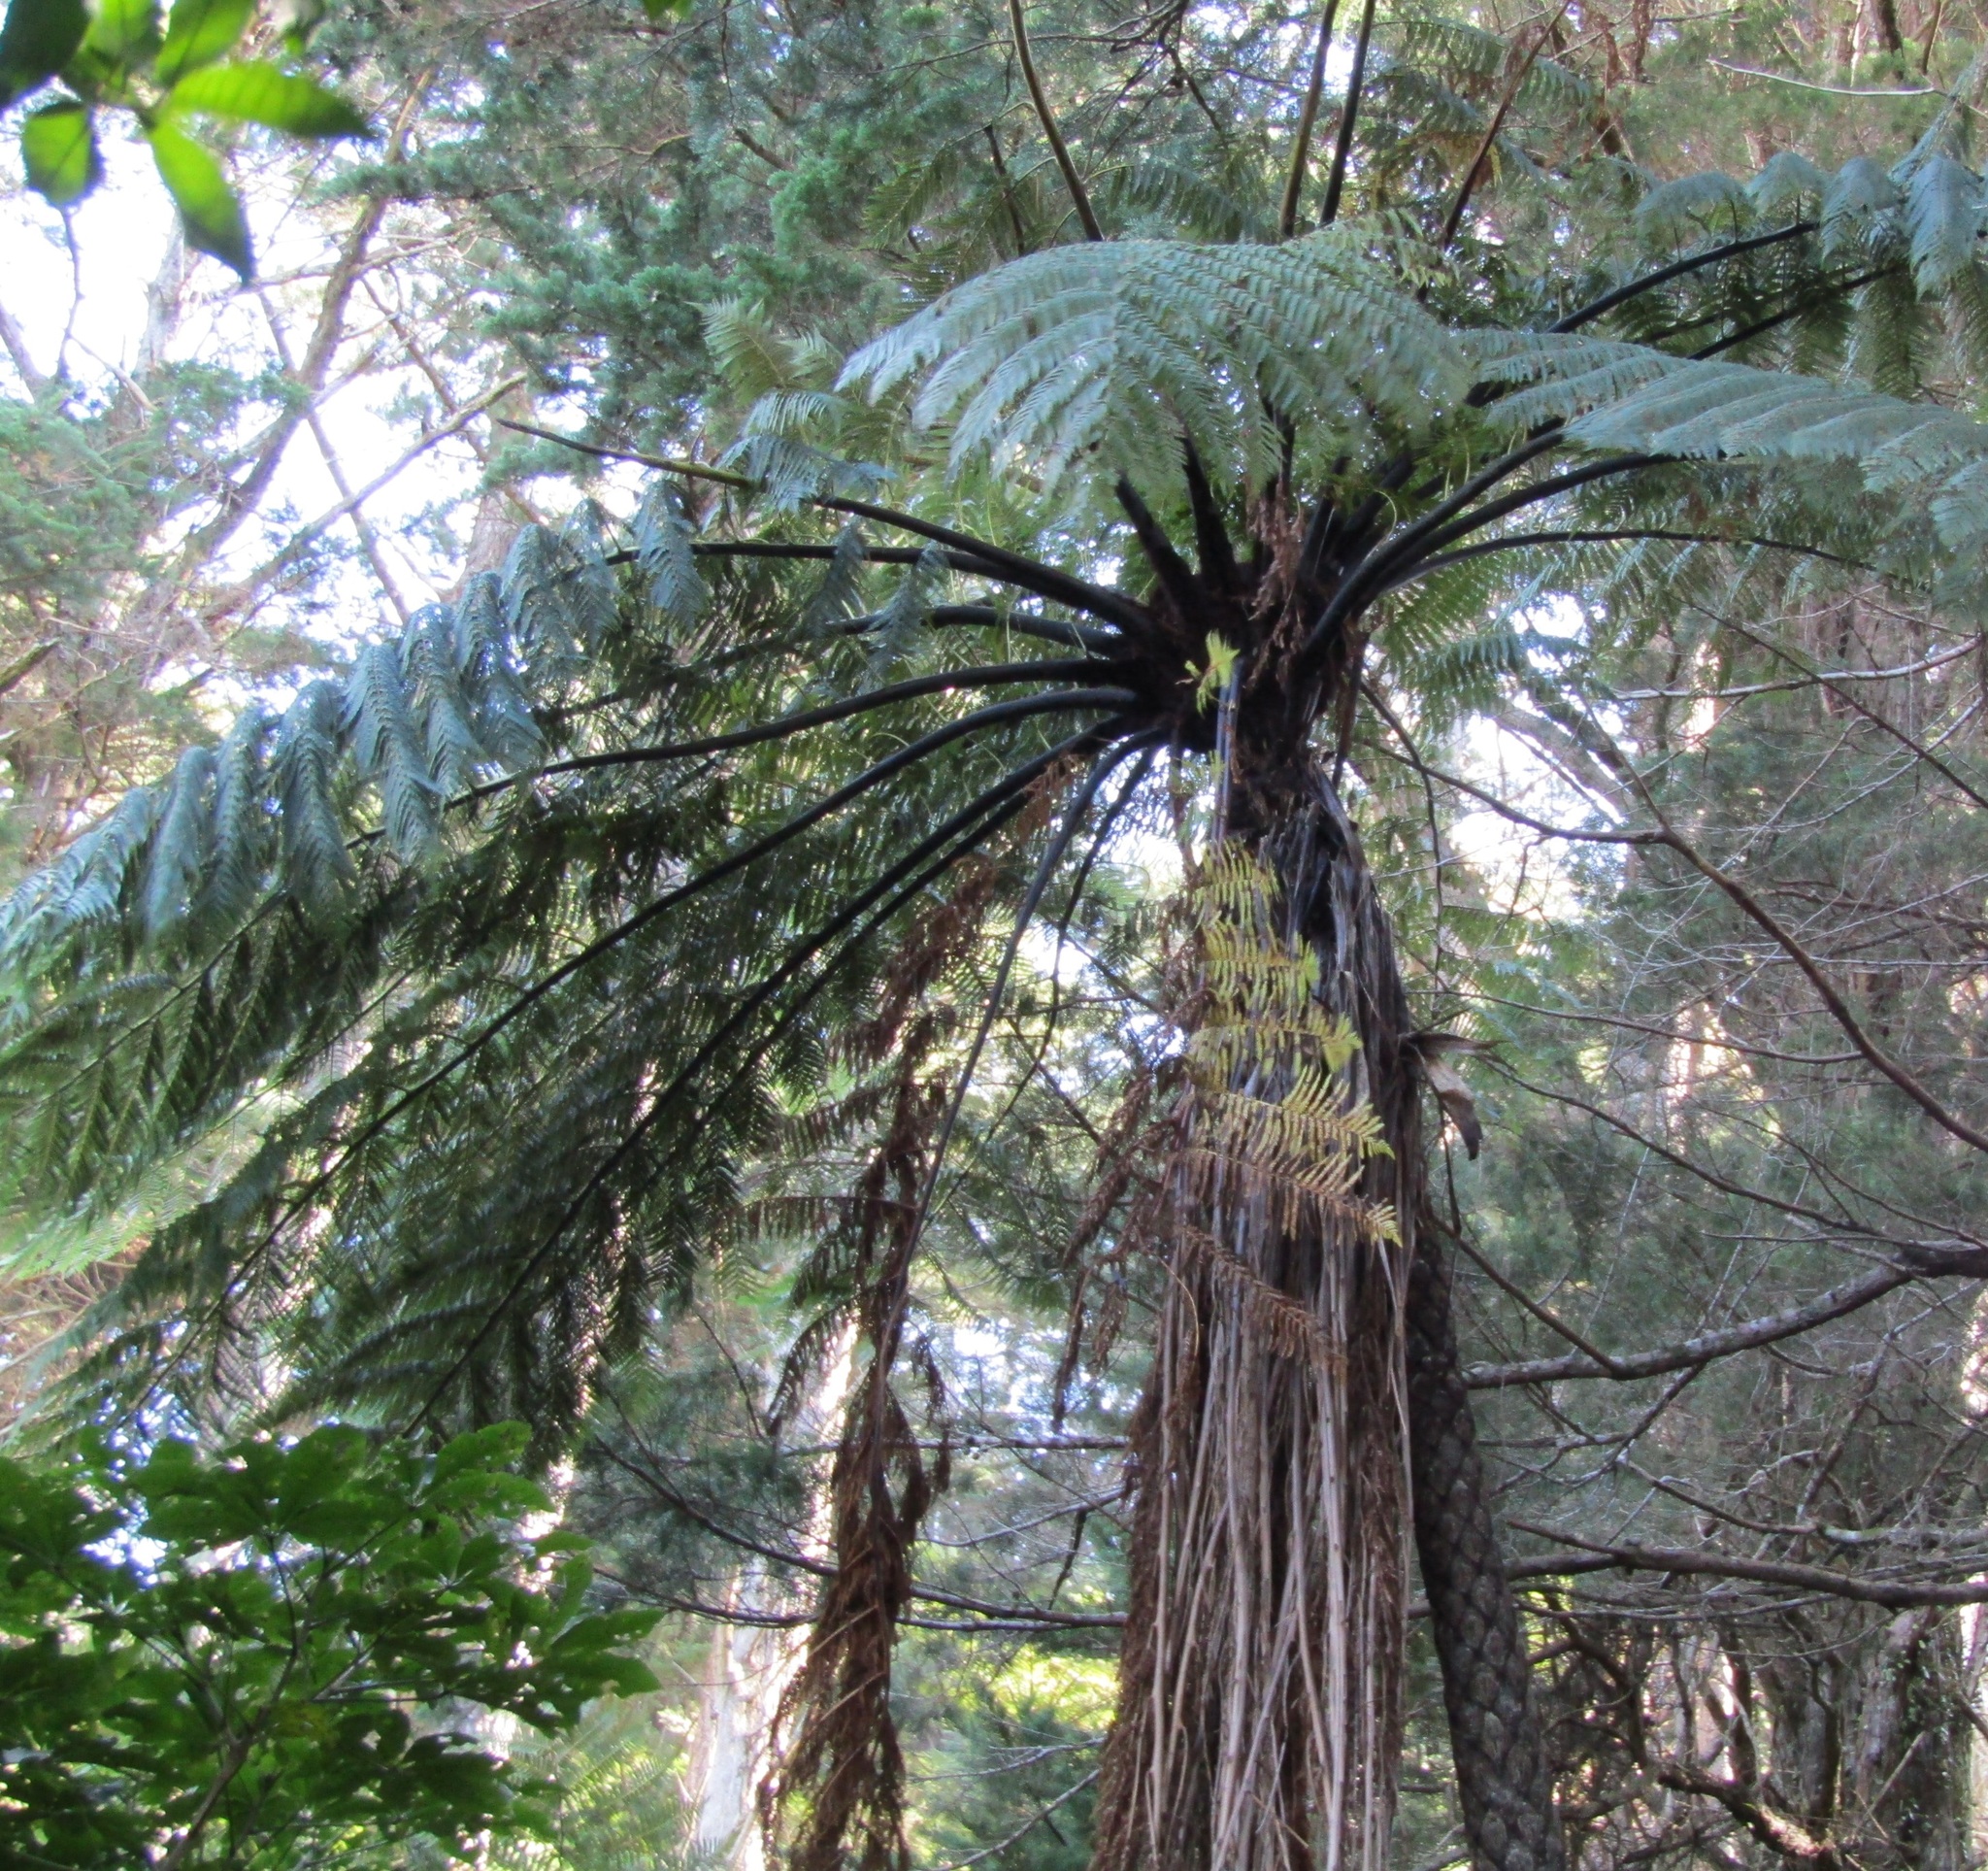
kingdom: Plantae
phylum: Tracheophyta
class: Polypodiopsida
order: Cyatheales
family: Cyatheaceae
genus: Sphaeropteris
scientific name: Sphaeropteris medullaris
